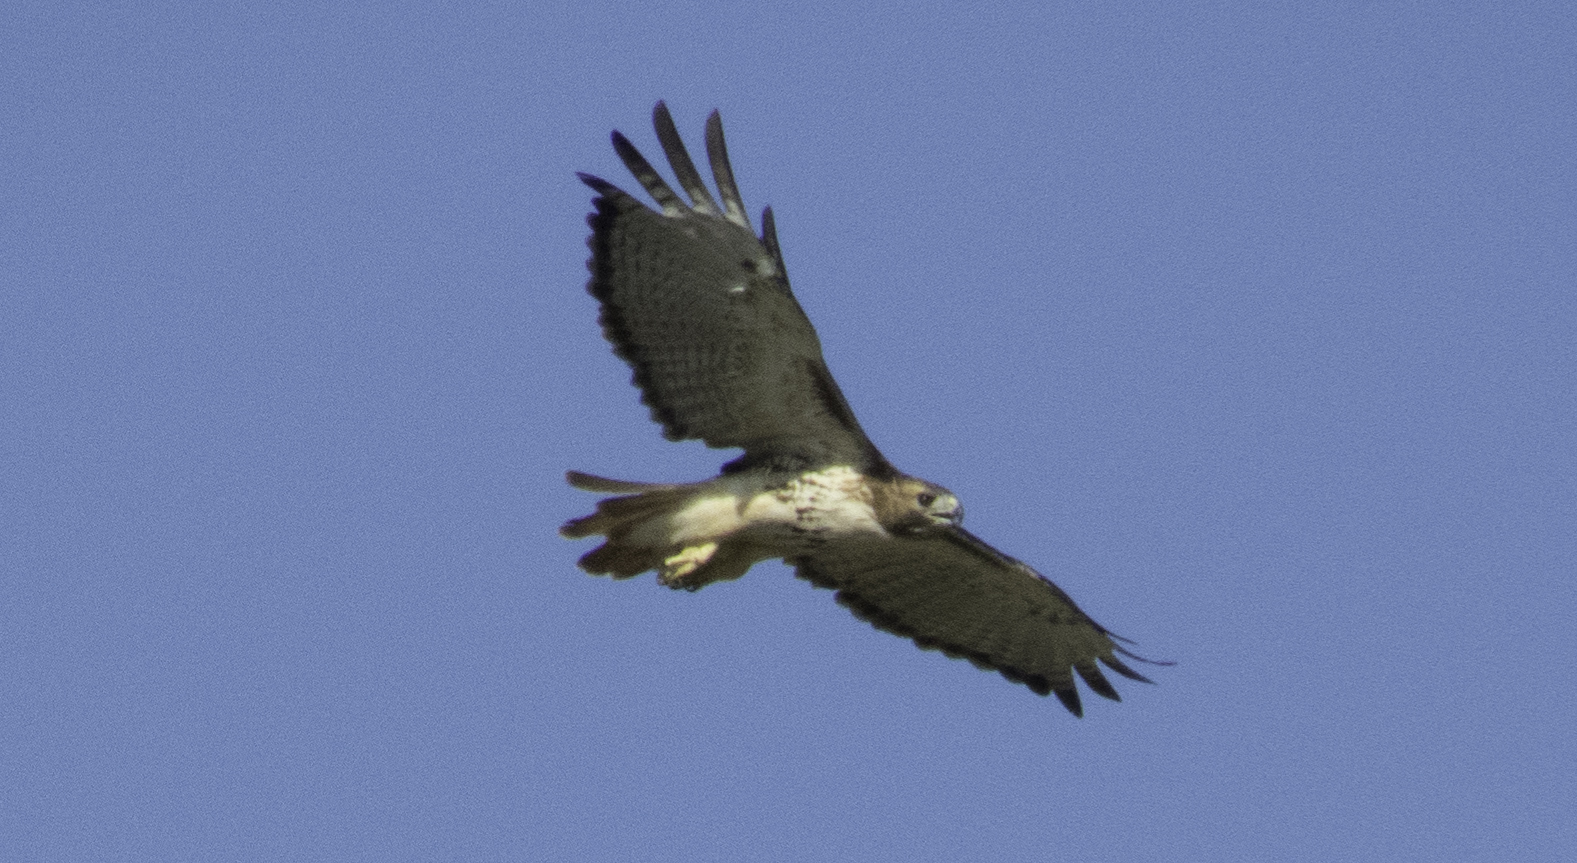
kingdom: Animalia
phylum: Chordata
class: Aves
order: Accipitriformes
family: Accipitridae
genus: Buteo
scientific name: Buteo jamaicensis
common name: Red-tailed hawk
